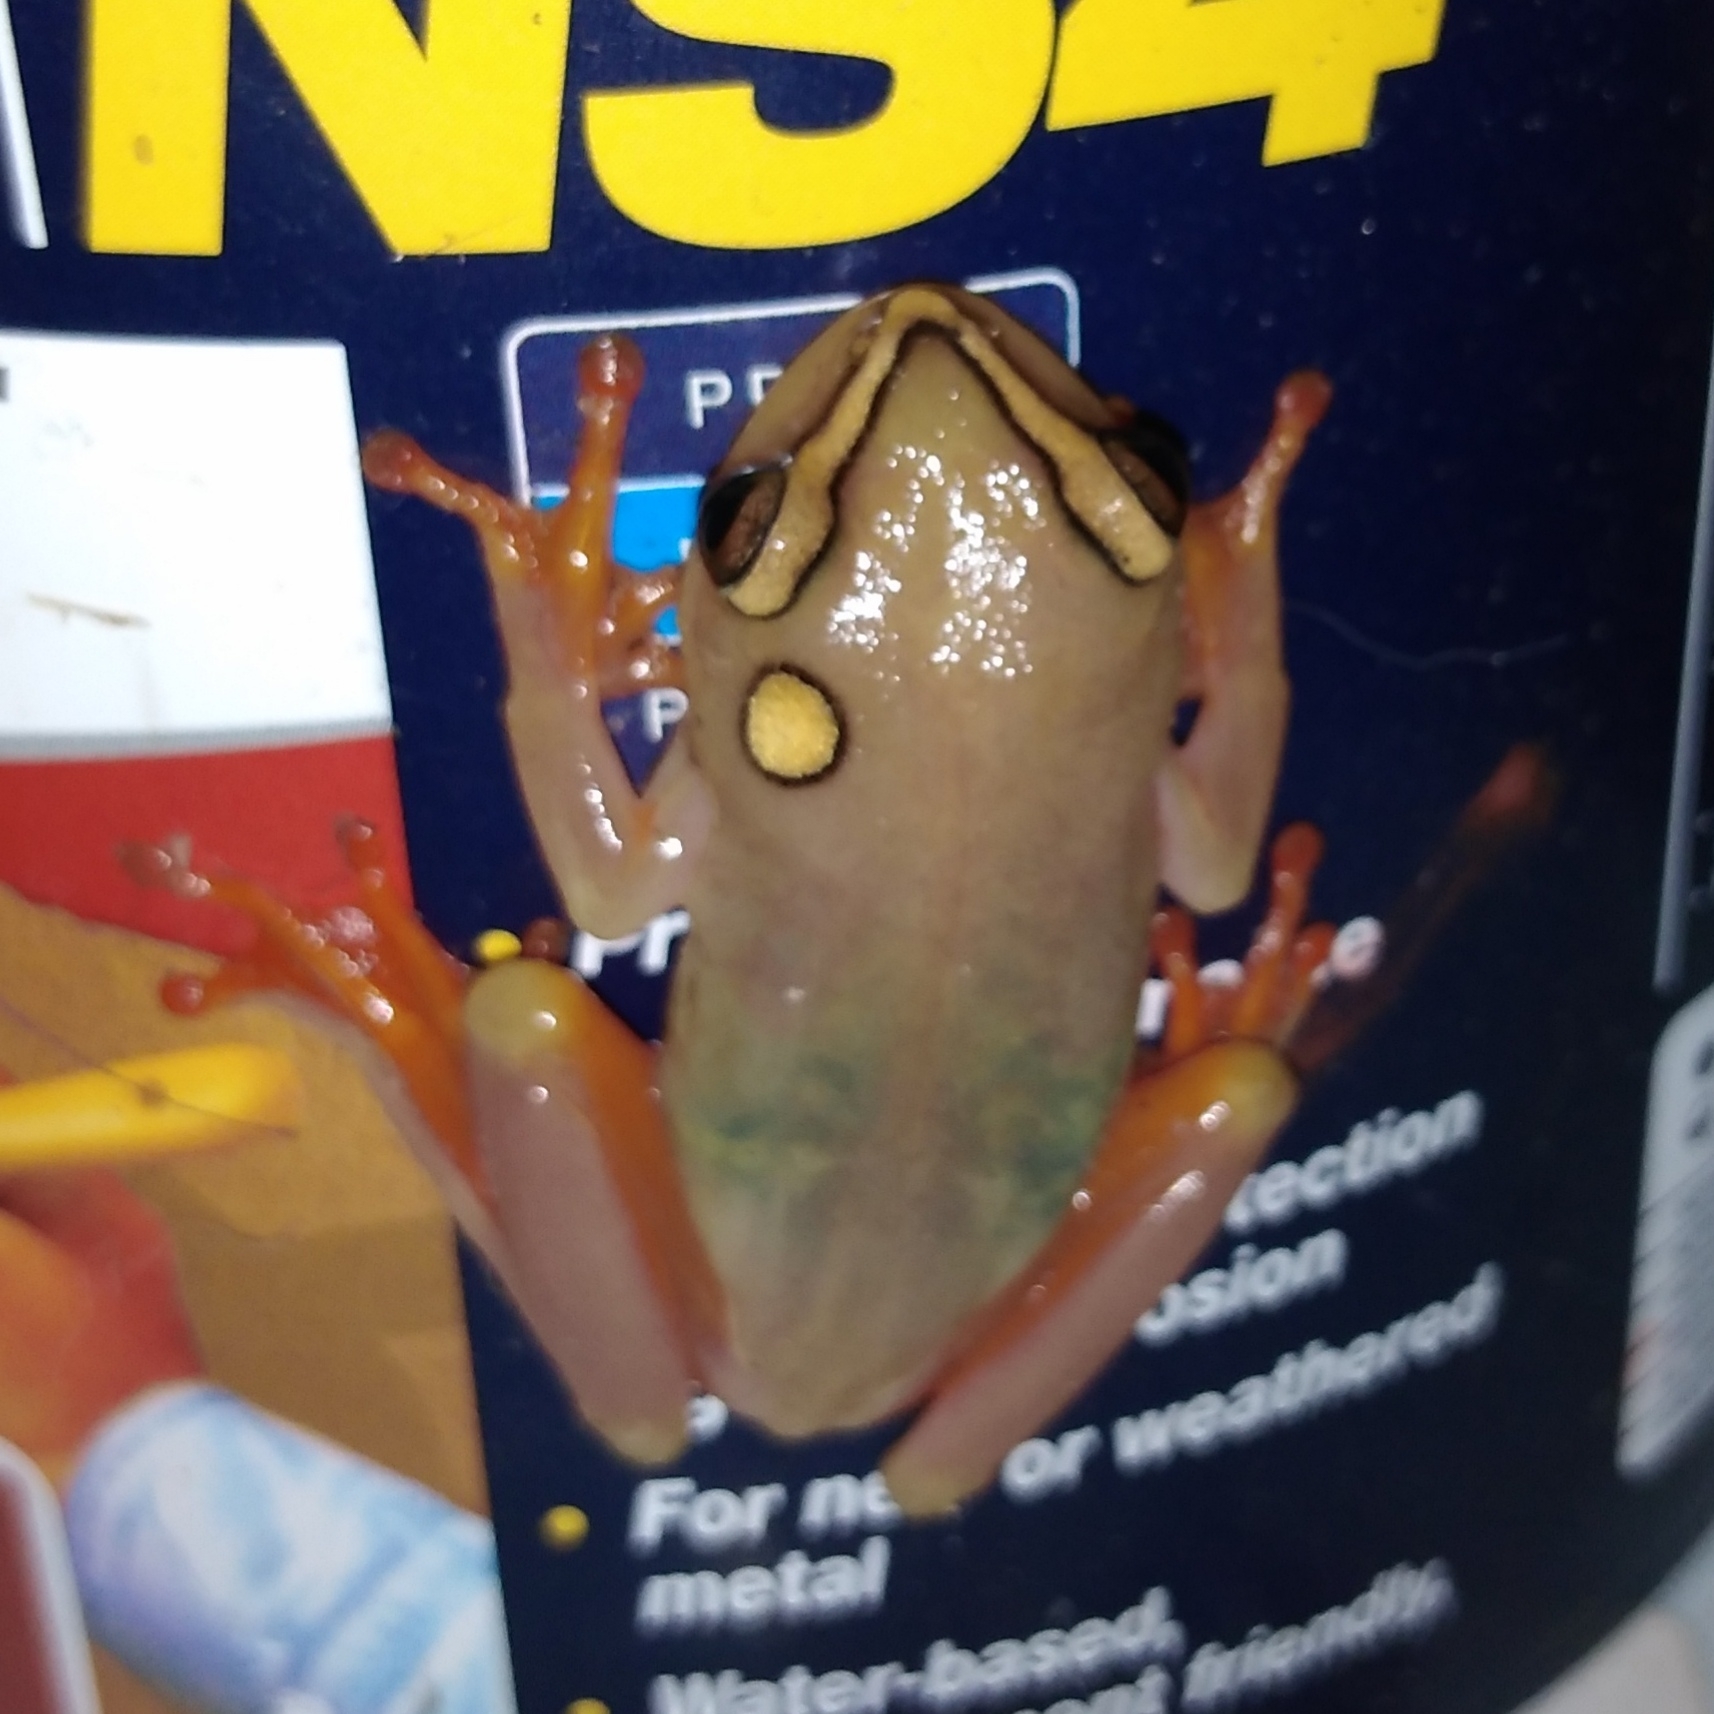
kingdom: Animalia
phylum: Chordata
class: Amphibia
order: Anura
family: Hyperoliidae
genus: Hyperolius
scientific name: Hyperolius argus
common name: Argus reed frog
